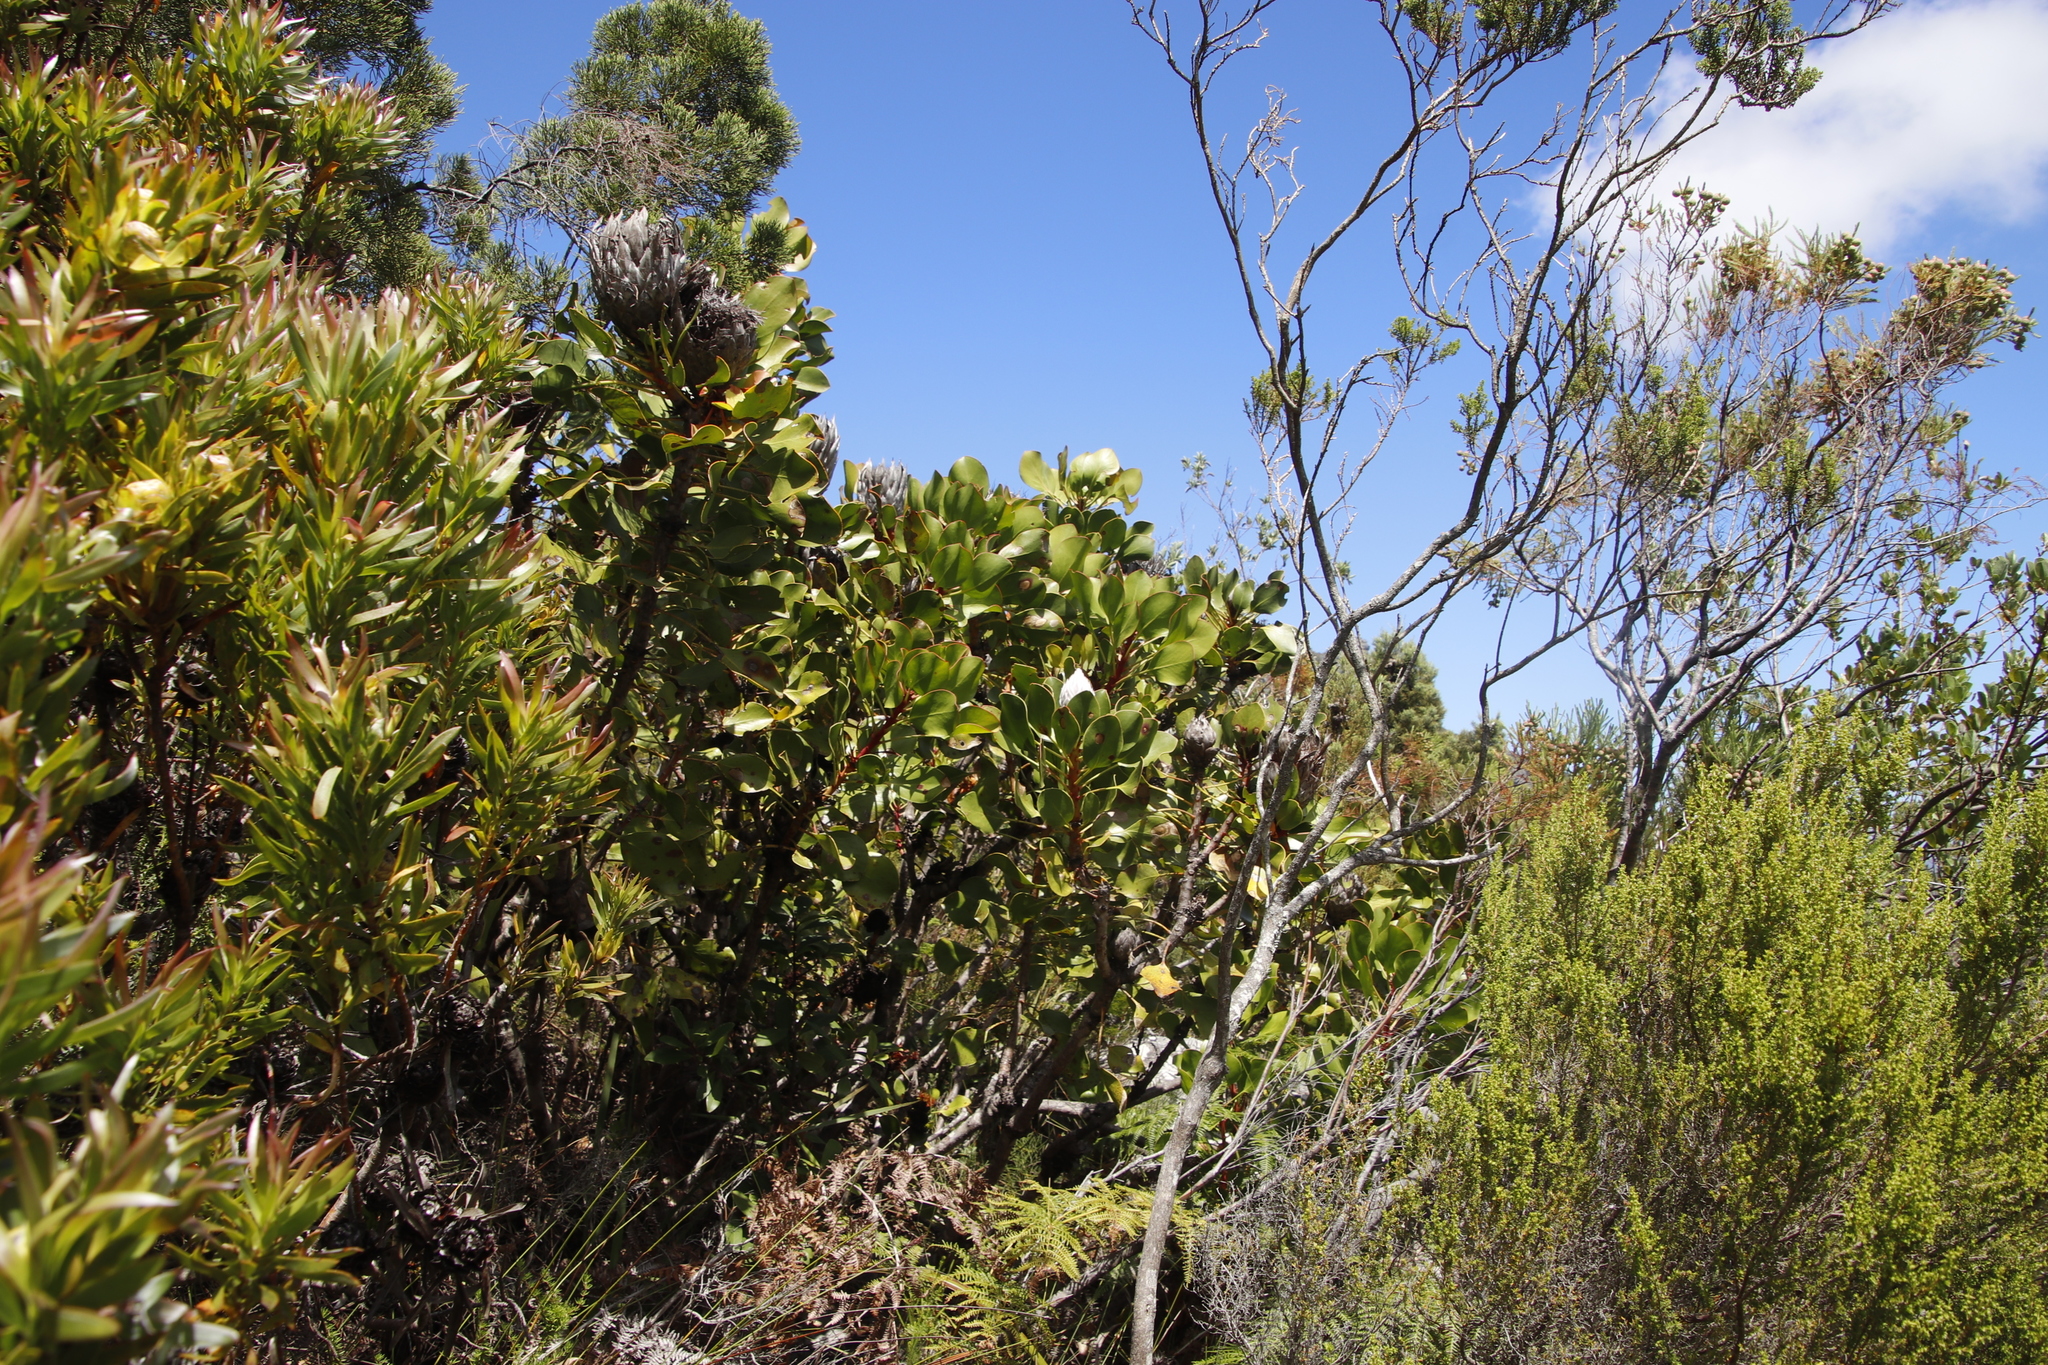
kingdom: Plantae
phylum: Tracheophyta
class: Magnoliopsida
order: Proteales
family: Proteaceae
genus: Protea
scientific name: Protea cynaroides
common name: King protea
